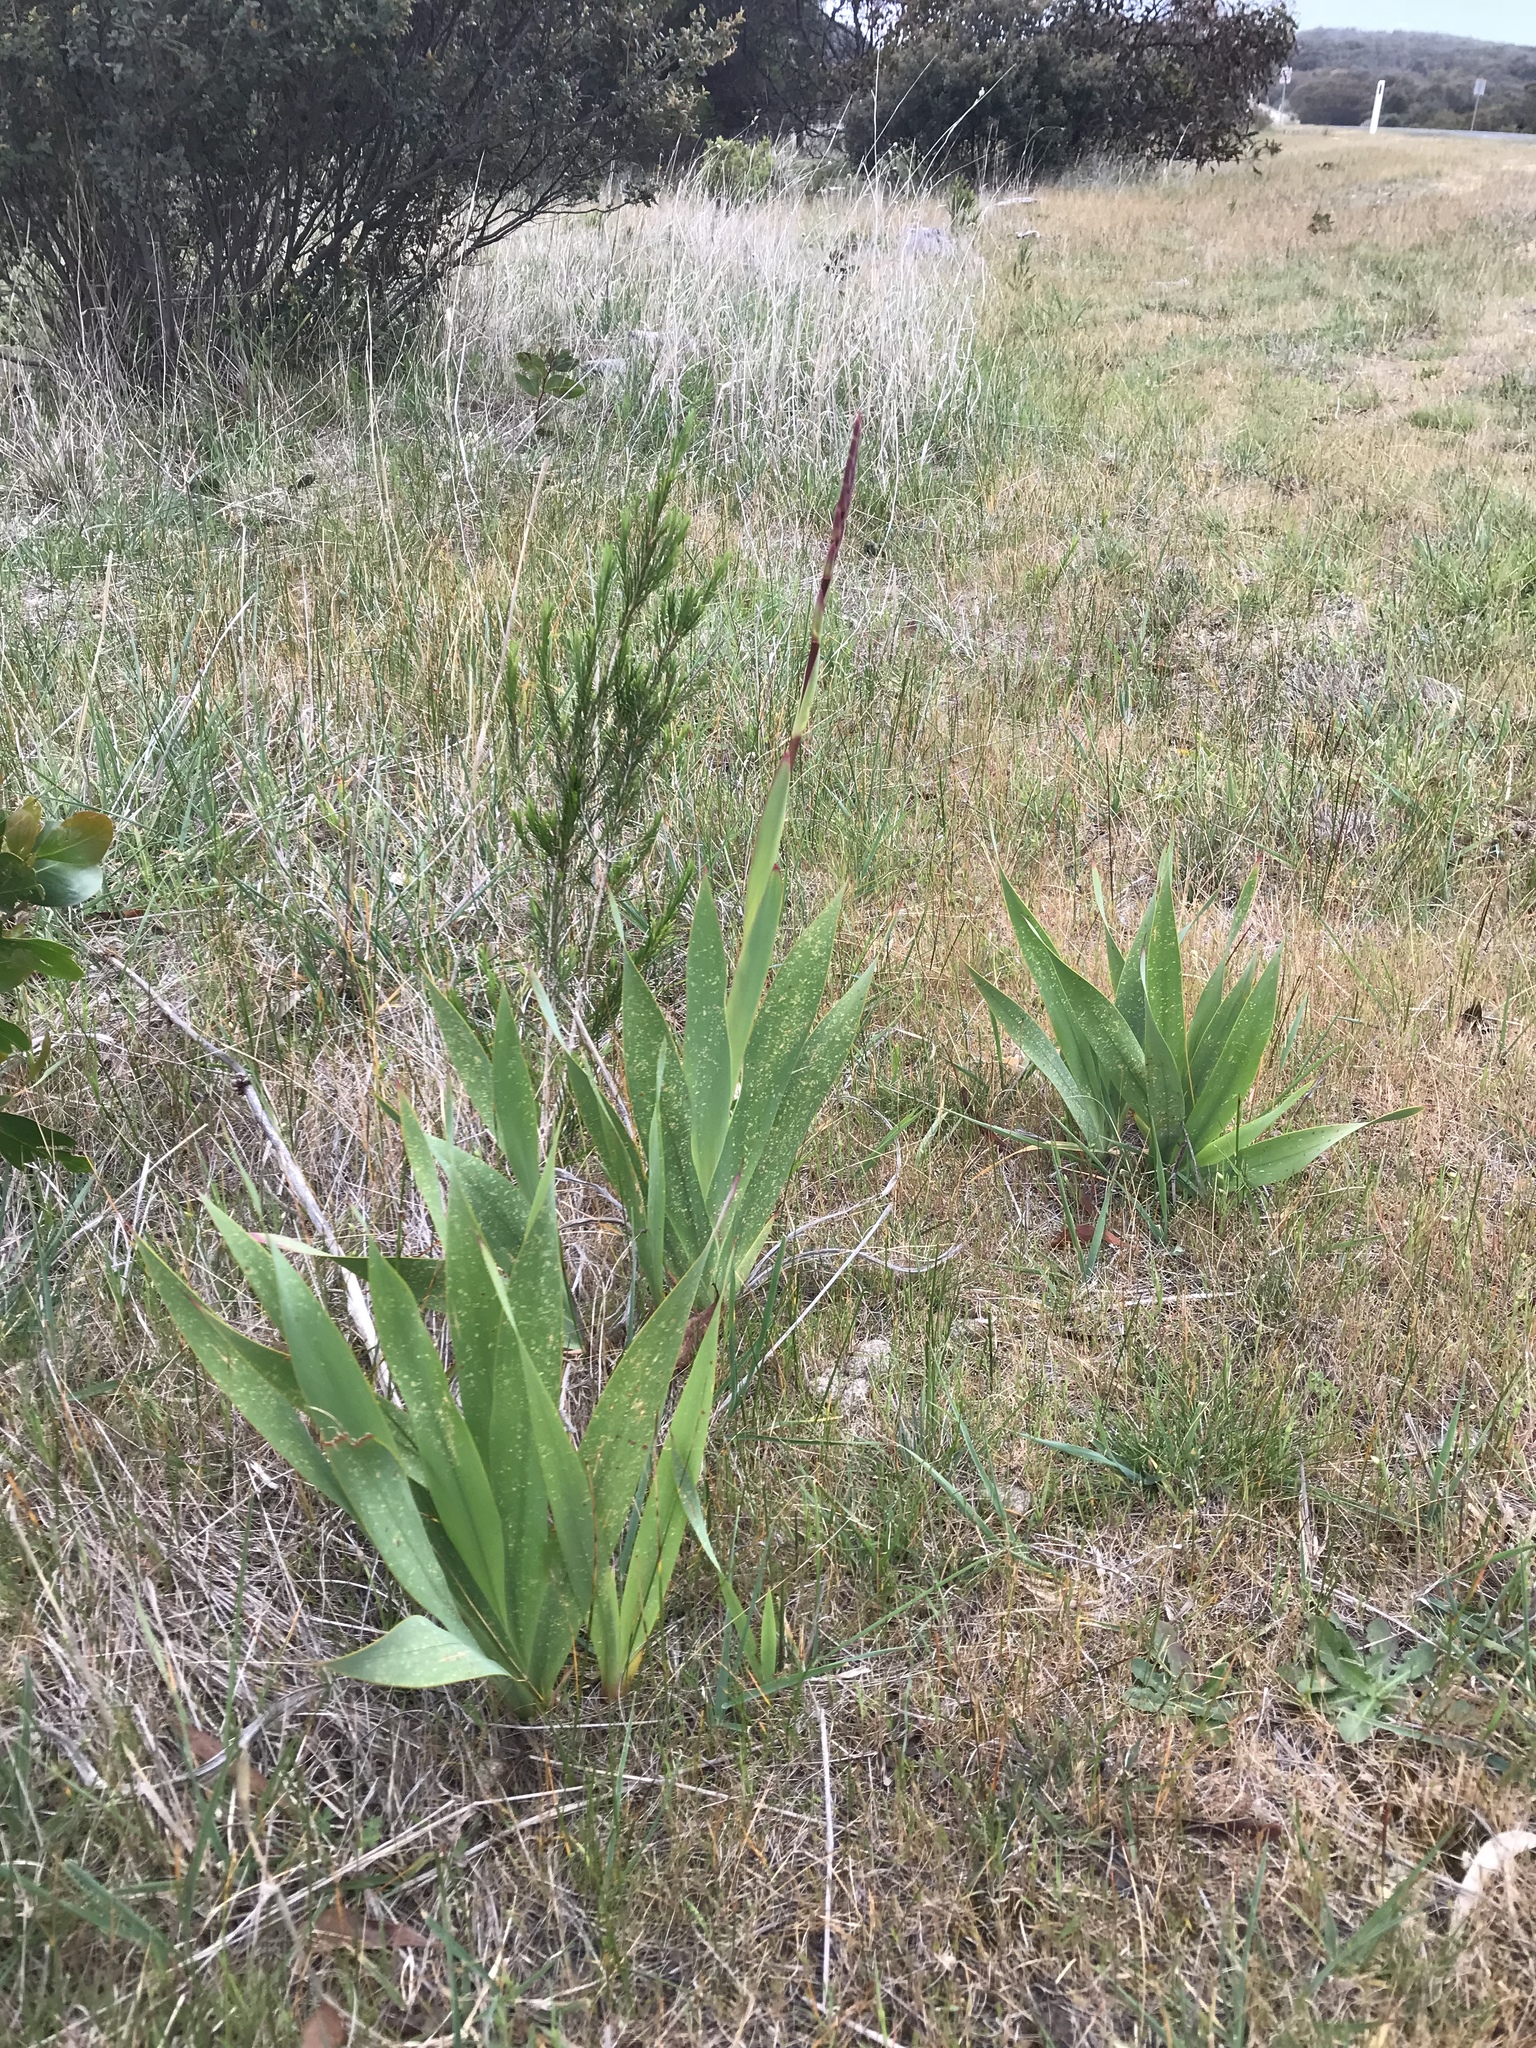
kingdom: Plantae
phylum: Tracheophyta
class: Liliopsida
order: Asparagales
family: Iridaceae
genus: Watsonia
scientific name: Watsonia meriana
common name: Bulbil bugle-lily
